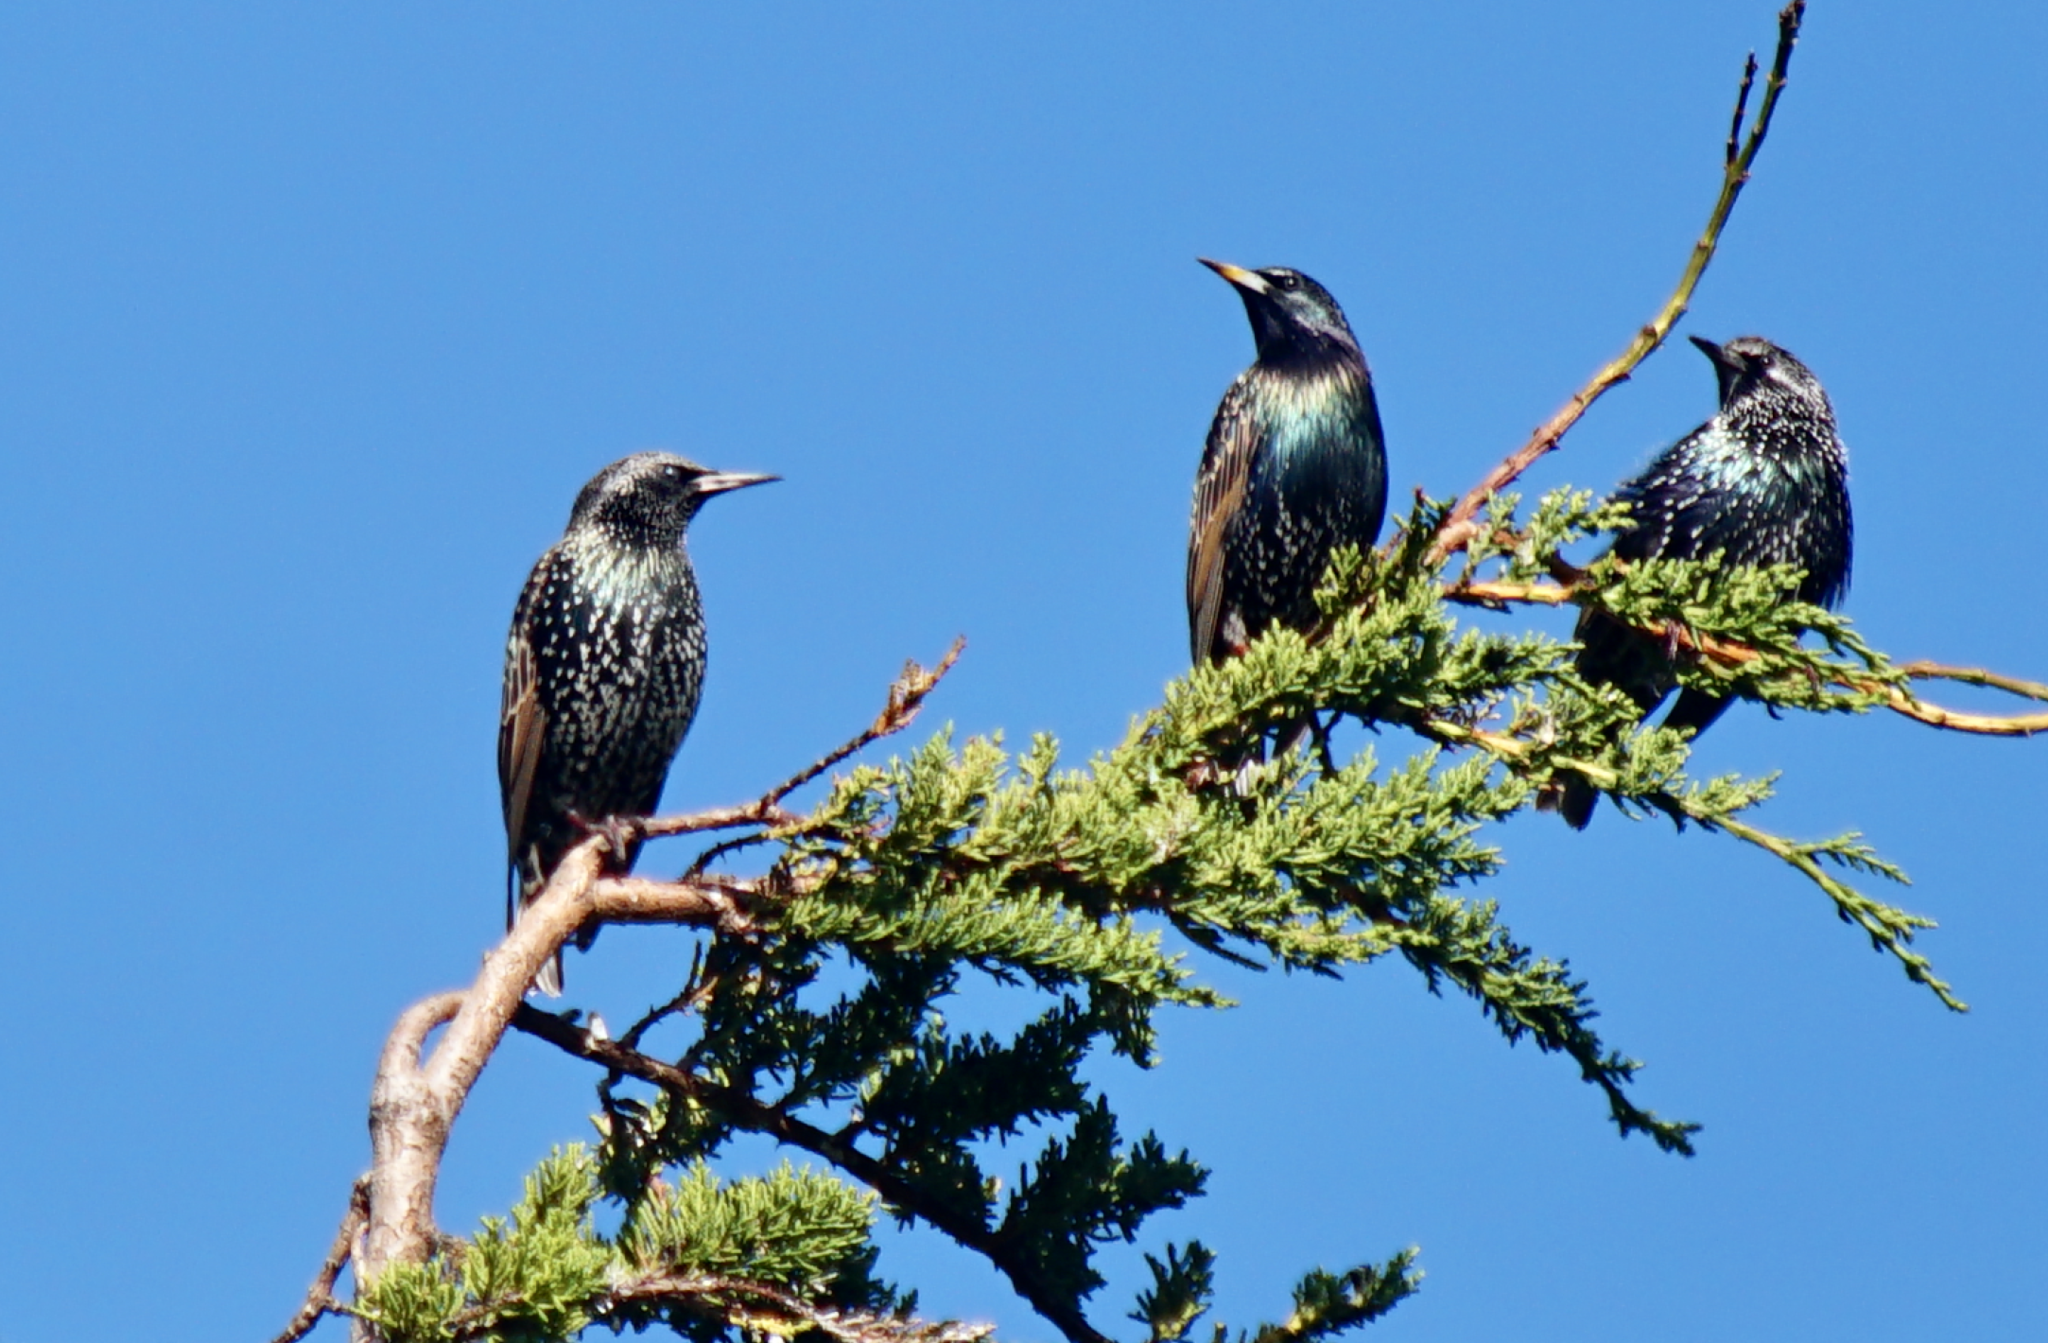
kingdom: Animalia
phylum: Chordata
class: Aves
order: Passeriformes
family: Sturnidae
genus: Sturnus
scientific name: Sturnus vulgaris
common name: Common starling
